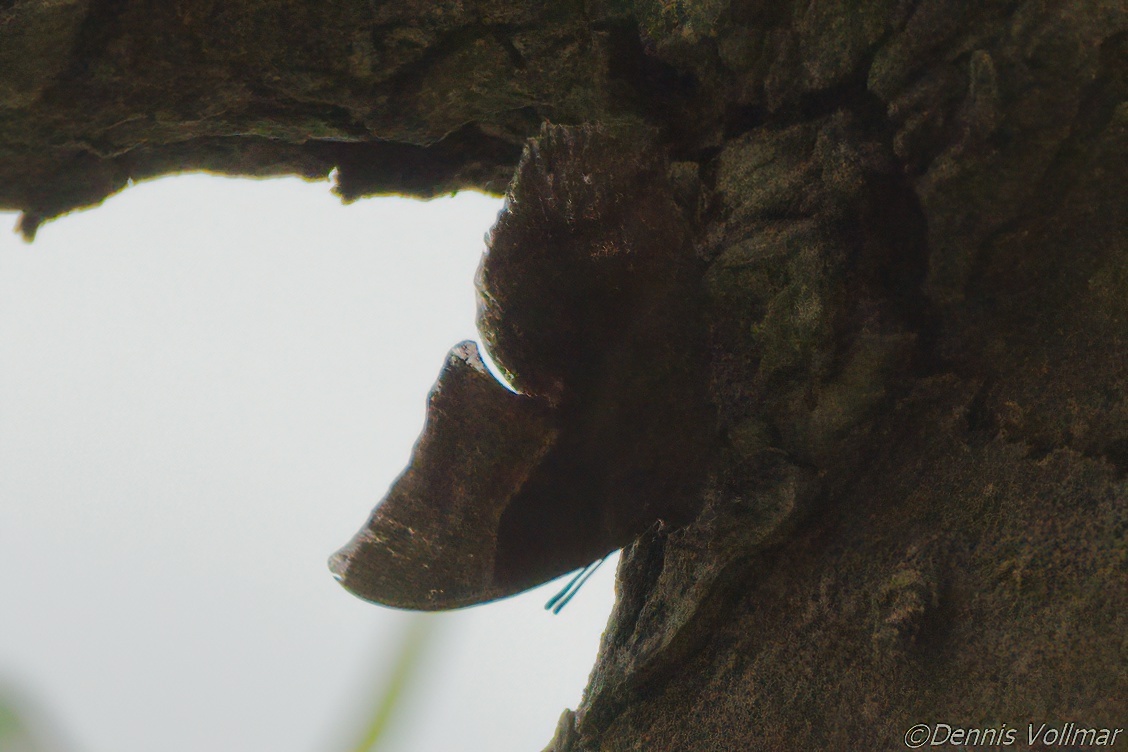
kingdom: Animalia
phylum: Arthropoda
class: Insecta
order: Lepidoptera
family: Nymphalidae
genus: Anaea
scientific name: Anaea pithyusa
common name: Pale-spotted leafwing
